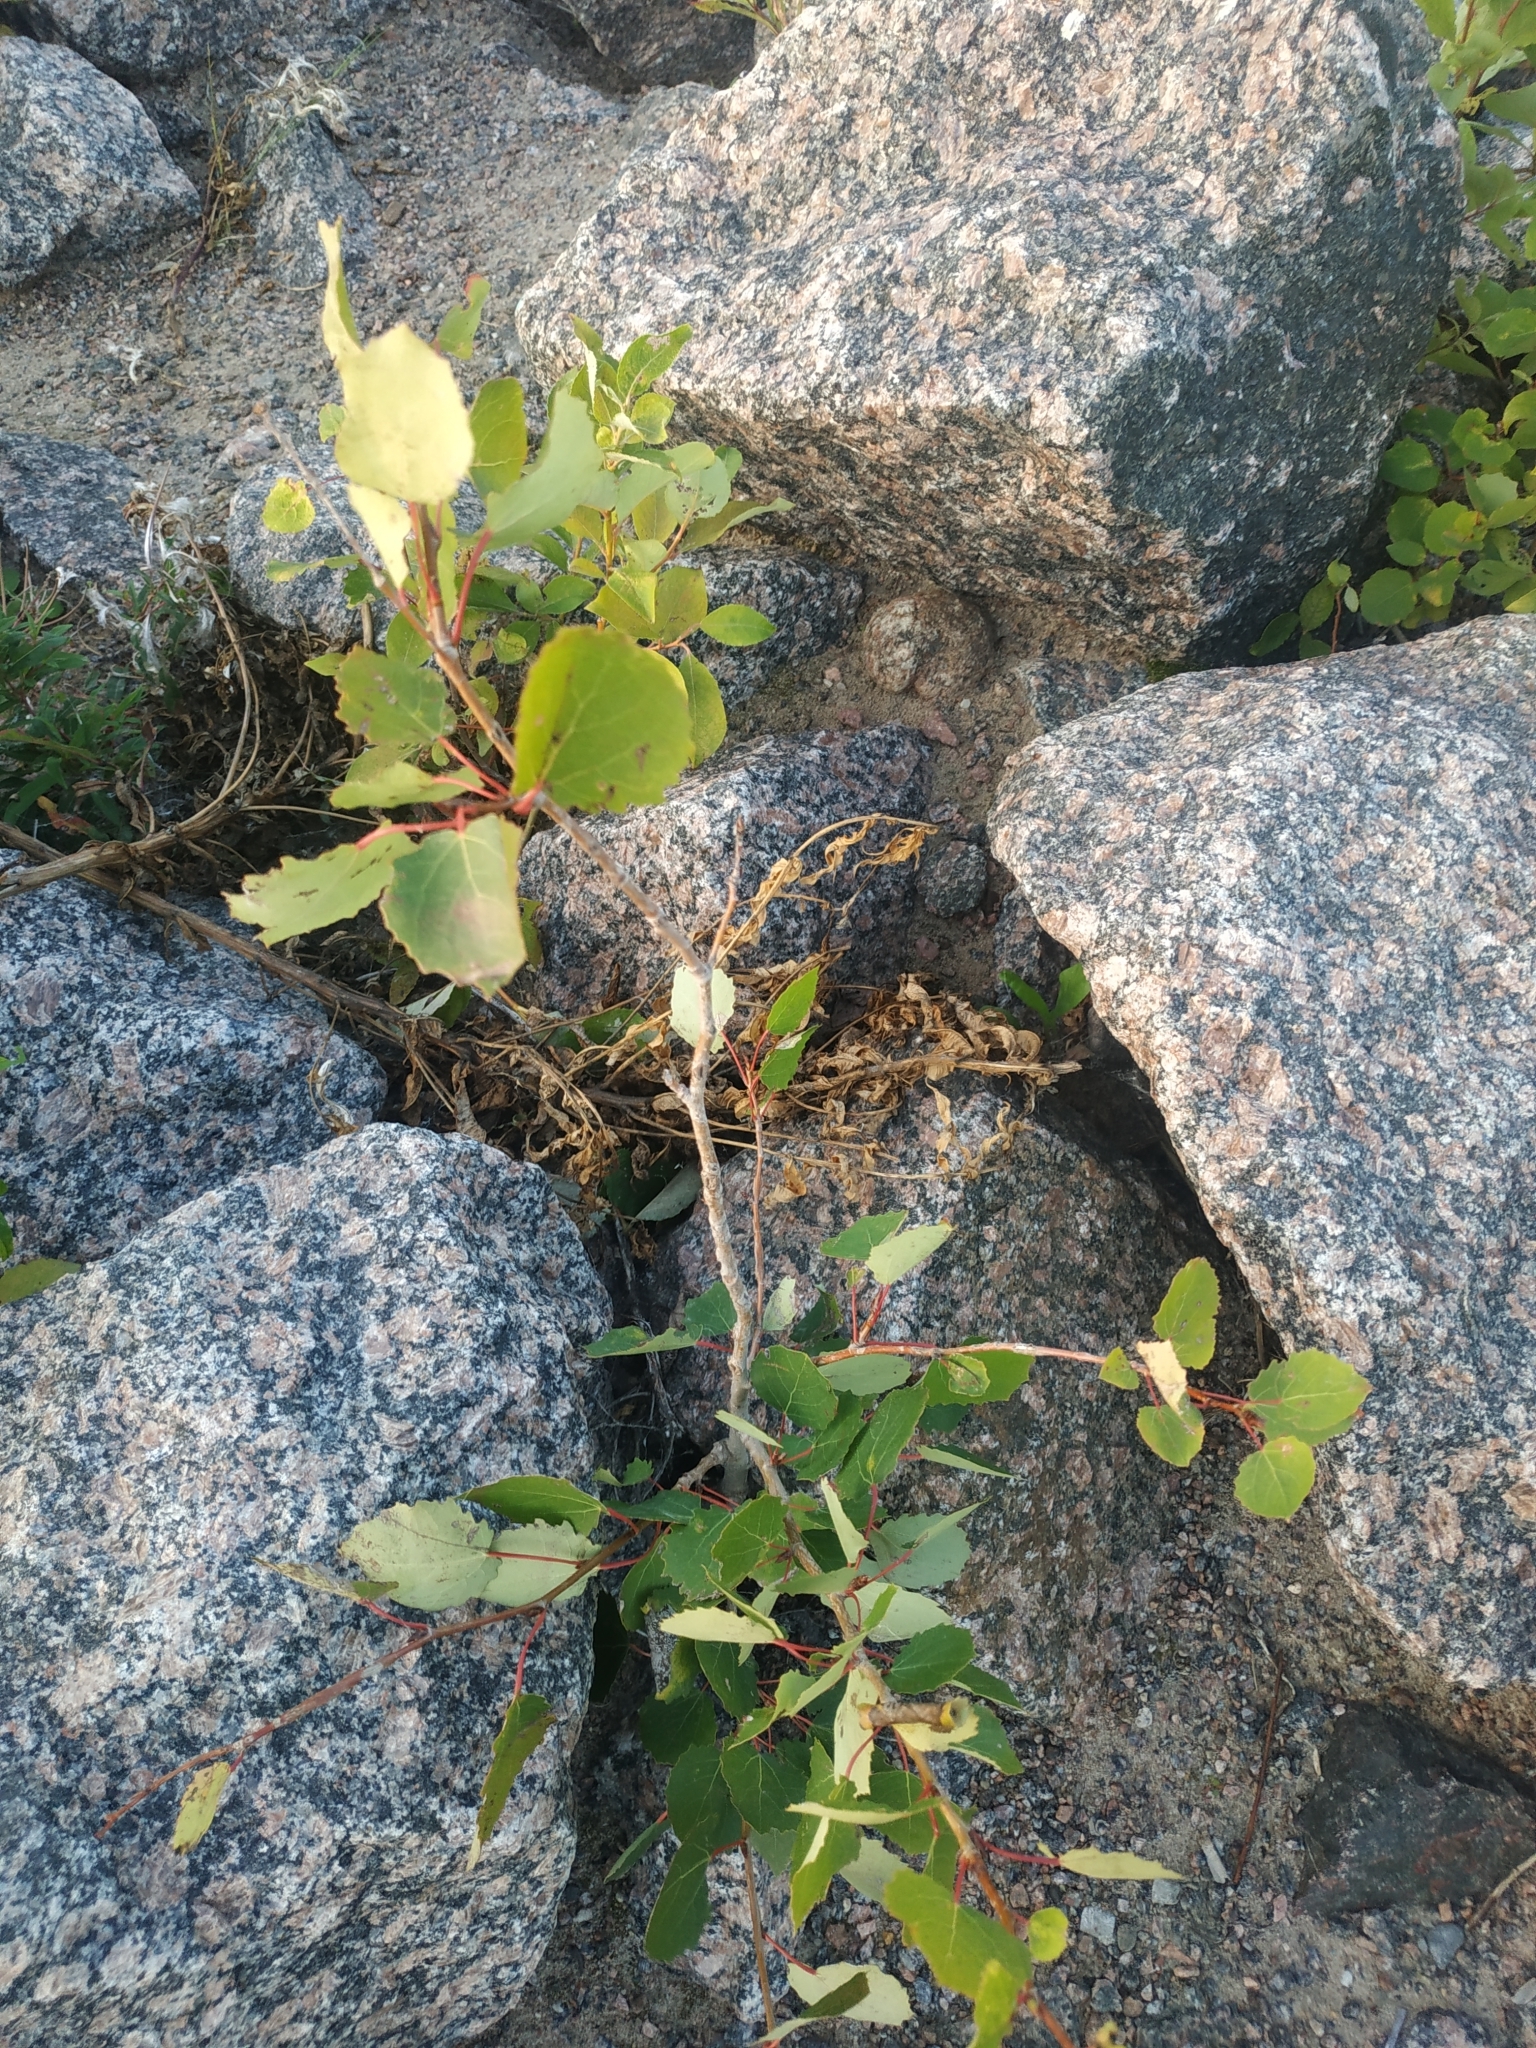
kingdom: Plantae
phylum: Tracheophyta
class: Magnoliopsida
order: Malpighiales
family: Salicaceae
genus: Populus
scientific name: Populus tremula
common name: European aspen
